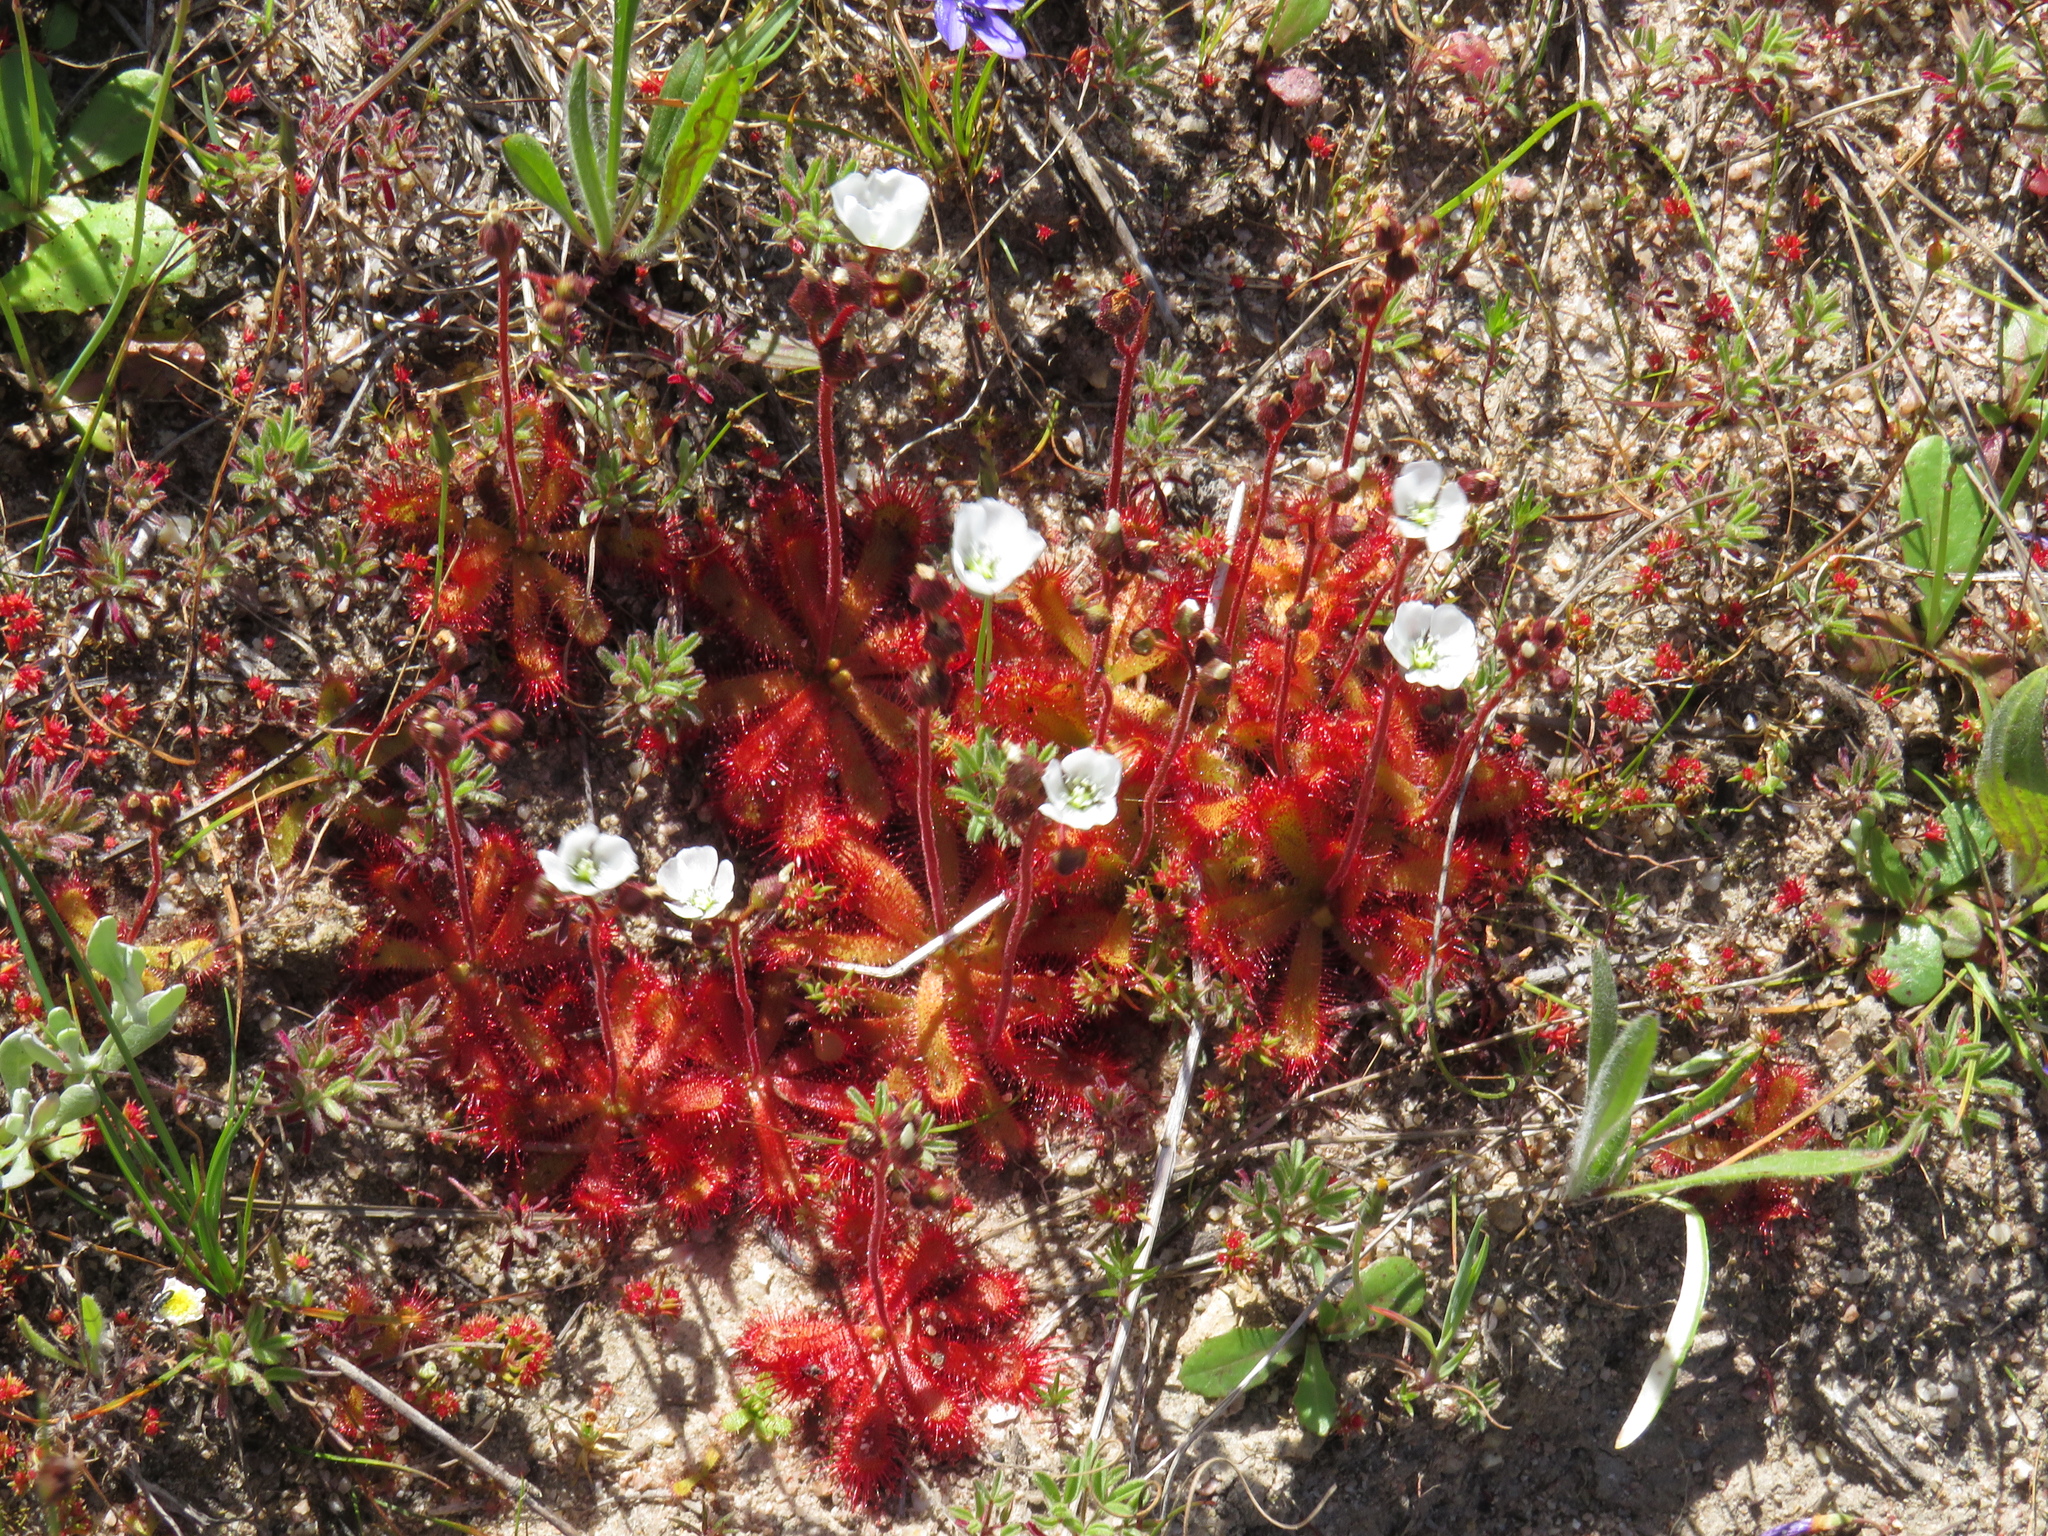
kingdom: Plantae
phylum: Tracheophyta
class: Magnoliopsida
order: Caryophyllales
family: Droseraceae
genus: Drosera
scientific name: Drosera trinervia
